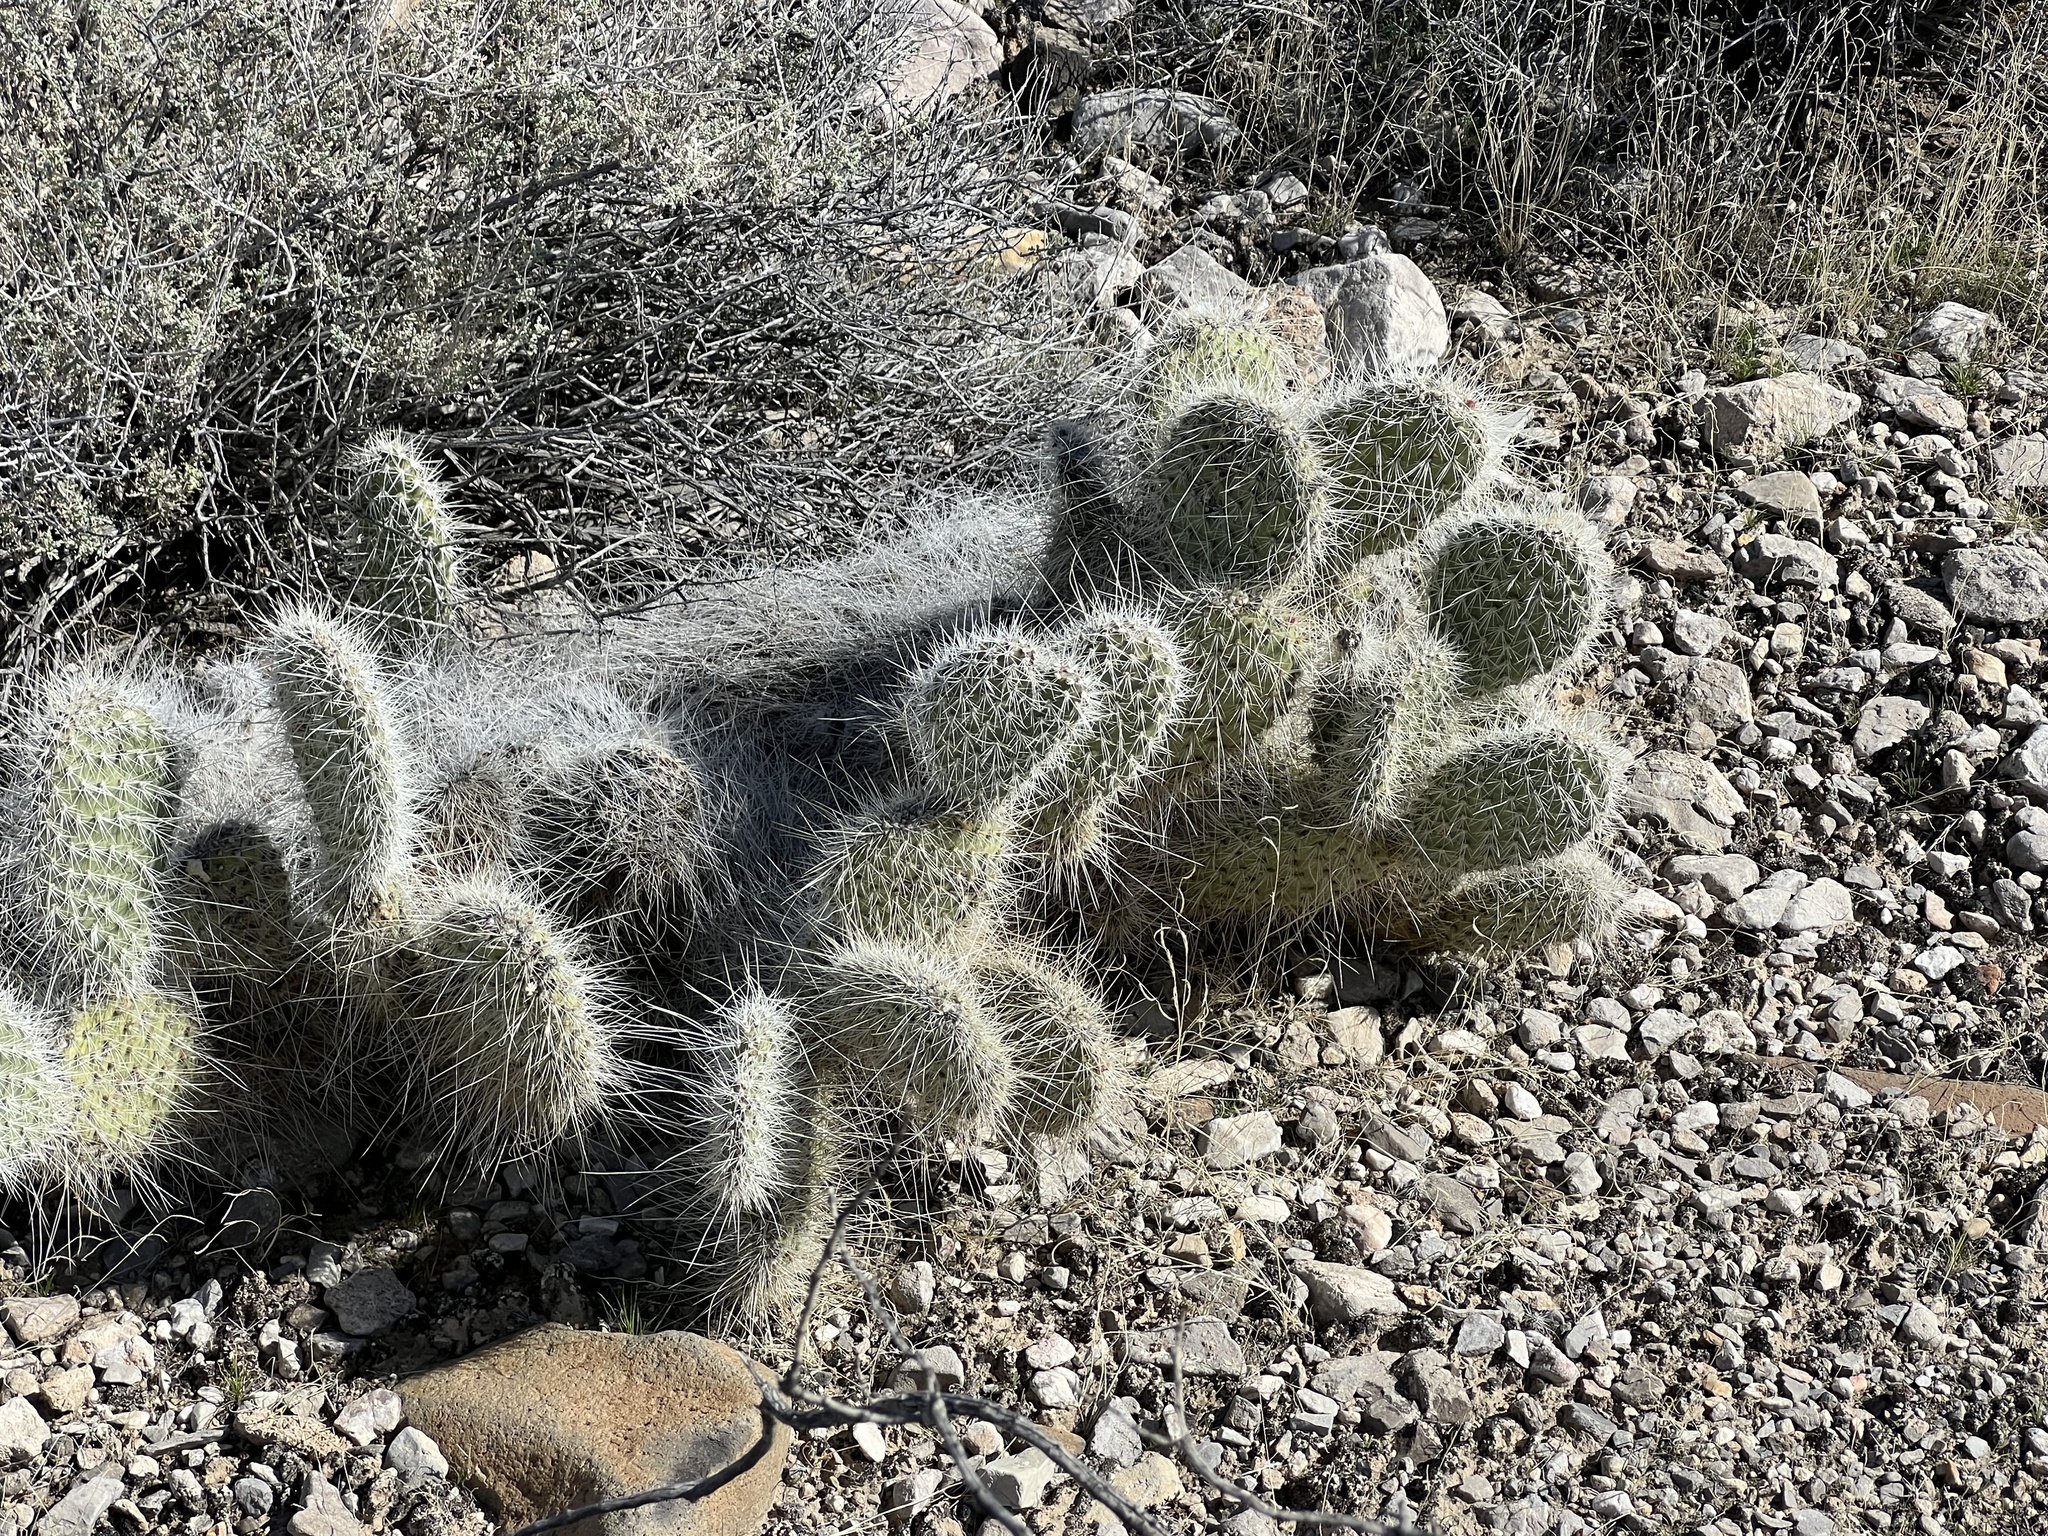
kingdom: Plantae
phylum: Tracheophyta
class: Magnoliopsida
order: Caryophyllales
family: Cactaceae
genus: Opuntia
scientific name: Opuntia polyacantha
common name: Plains prickly-pear
